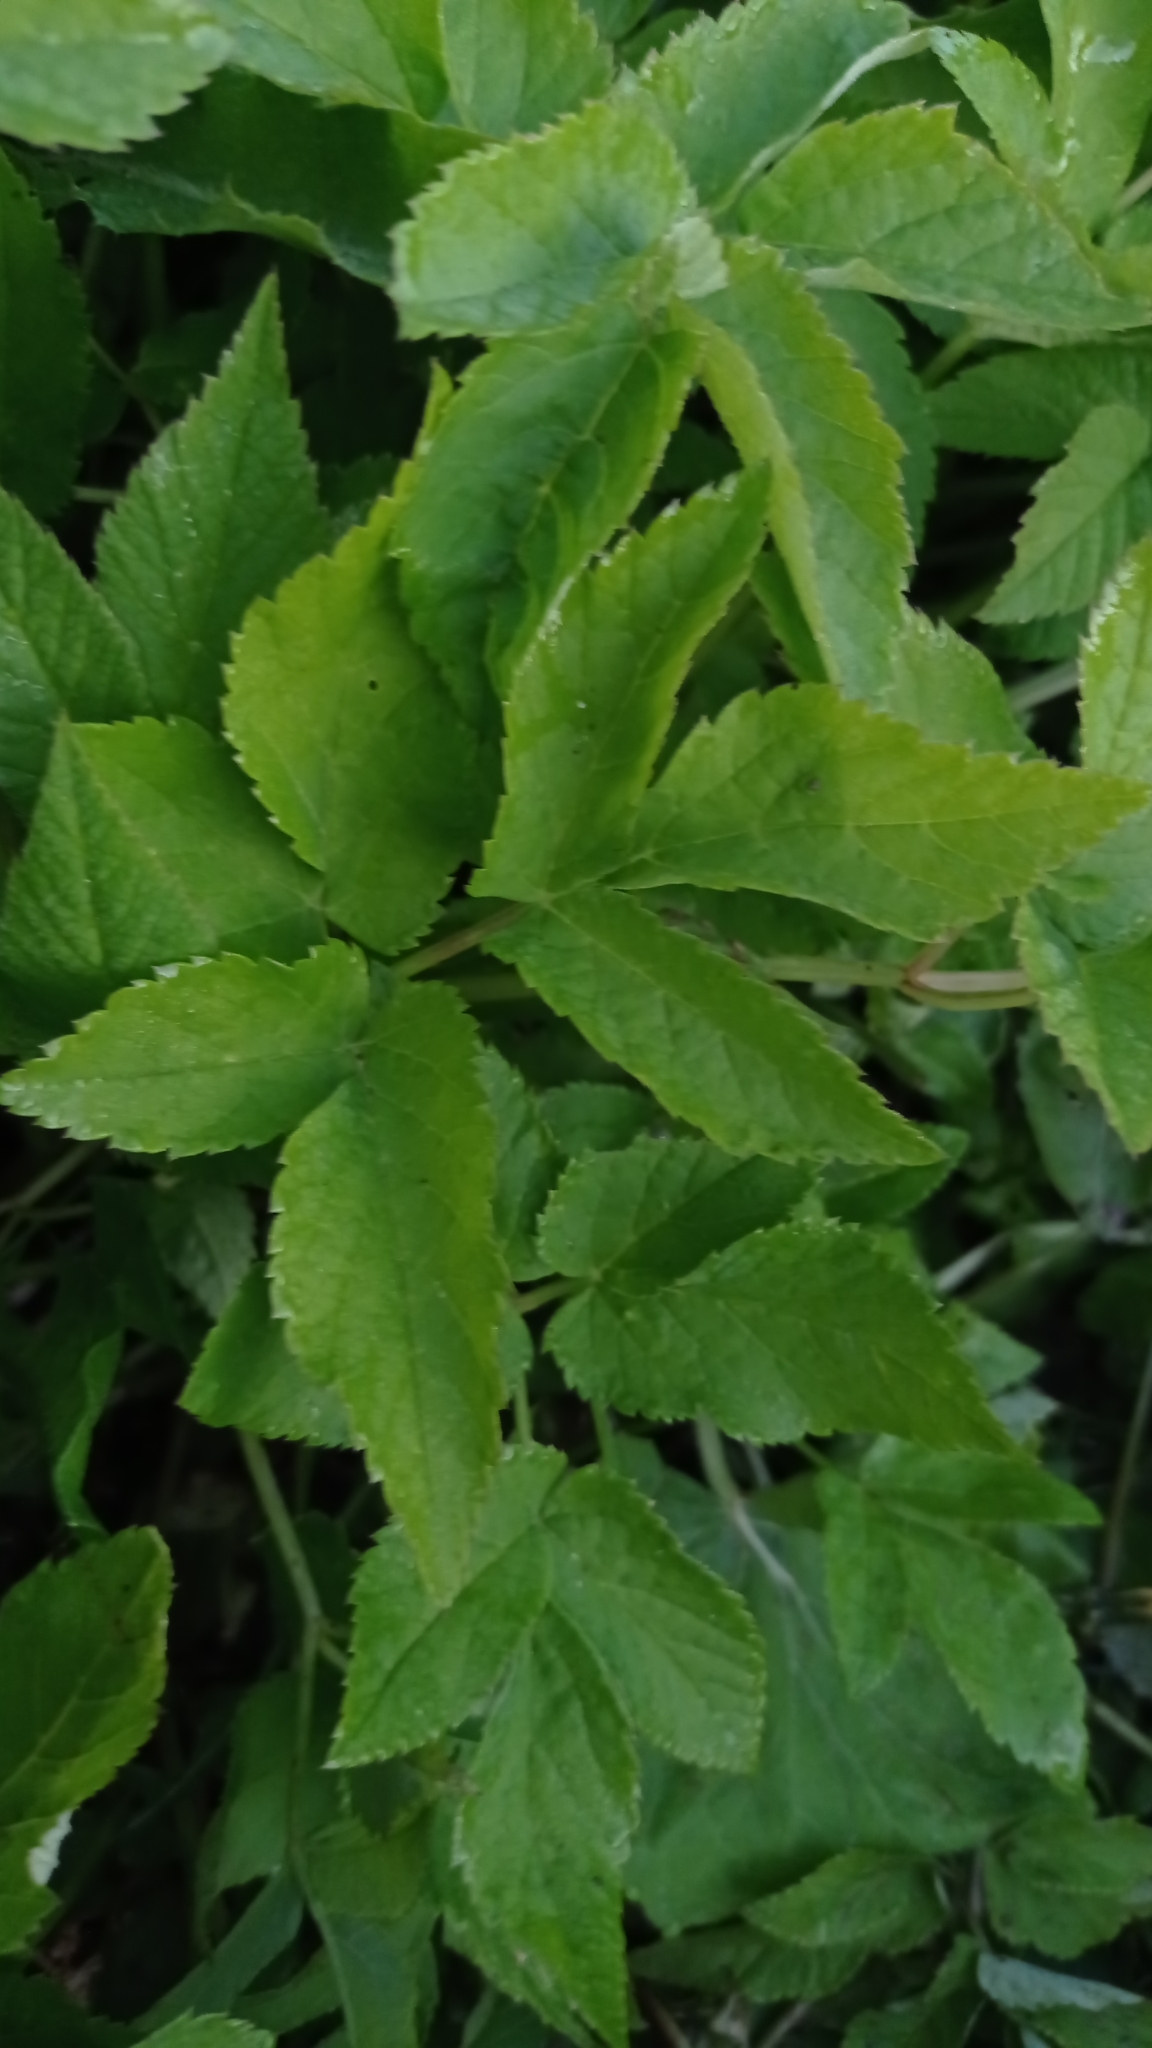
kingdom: Plantae
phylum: Tracheophyta
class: Magnoliopsida
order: Apiales
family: Apiaceae
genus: Aegopodium
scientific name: Aegopodium podagraria
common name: Ground-elder
